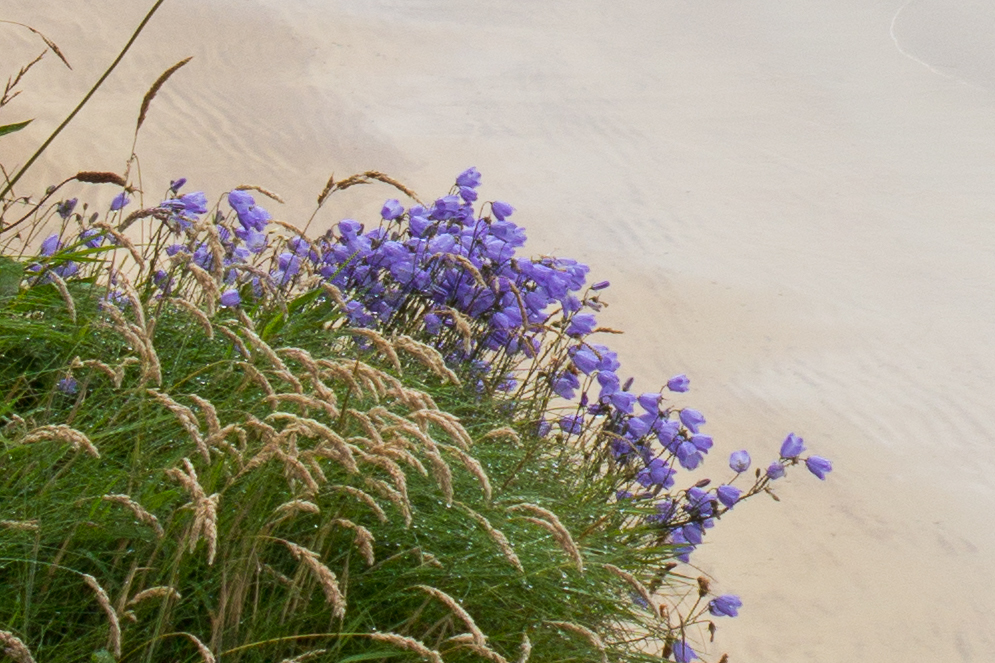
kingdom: Plantae
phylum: Tracheophyta
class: Magnoliopsida
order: Asterales
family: Campanulaceae
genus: Campanula
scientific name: Campanula rotundifolia
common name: Harebell
